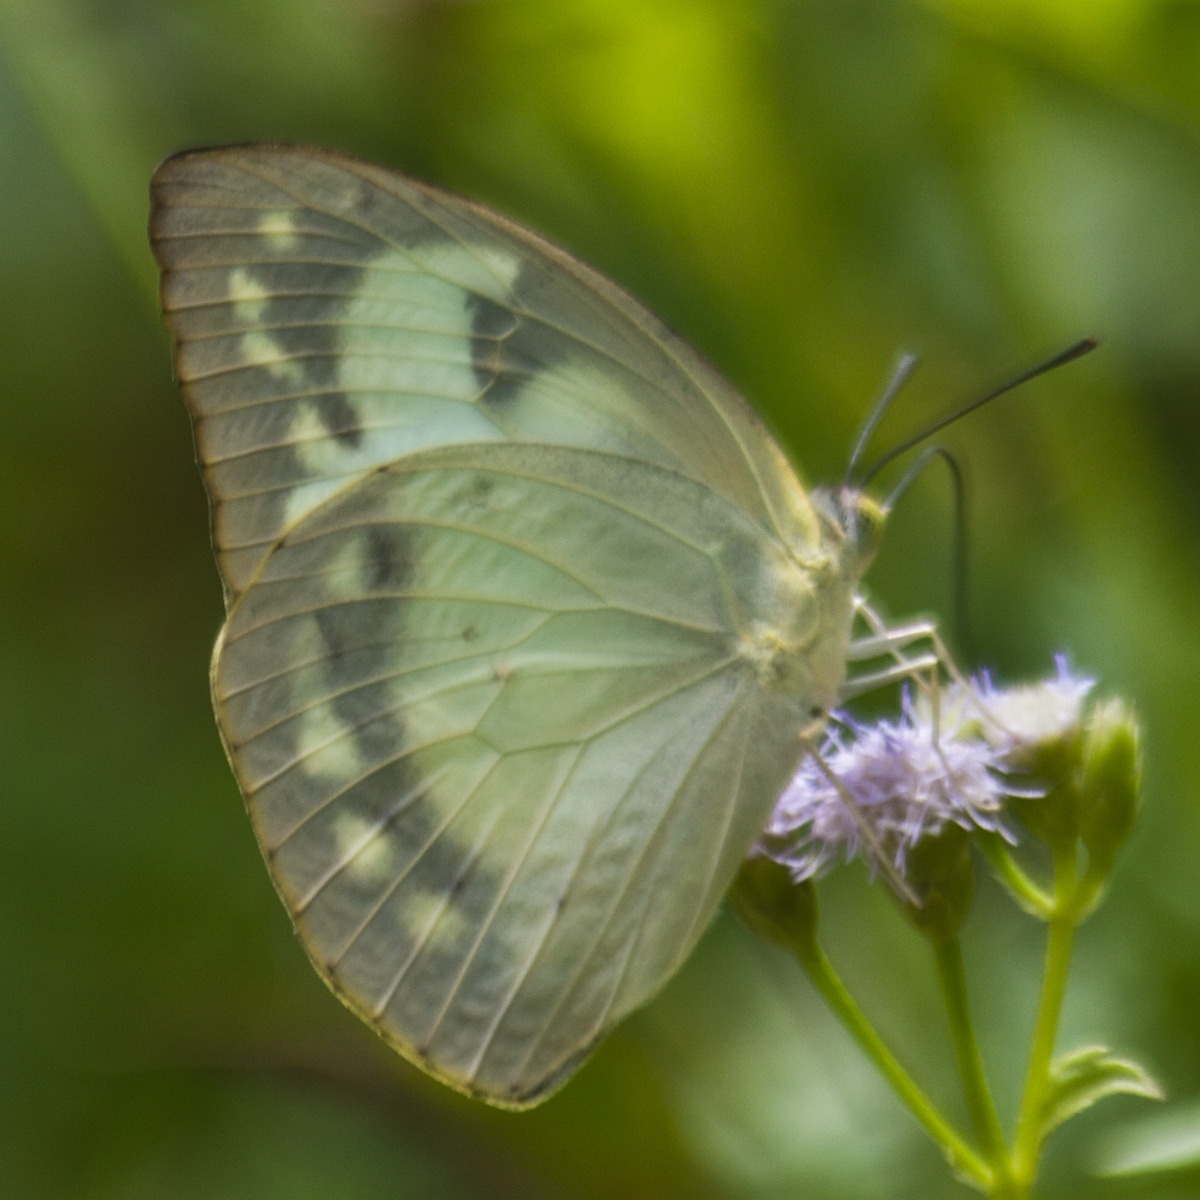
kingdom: Animalia
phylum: Arthropoda
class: Insecta
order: Lepidoptera
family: Pieridae
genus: Catopsilia
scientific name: Catopsilia pomona
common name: Common emigrant
